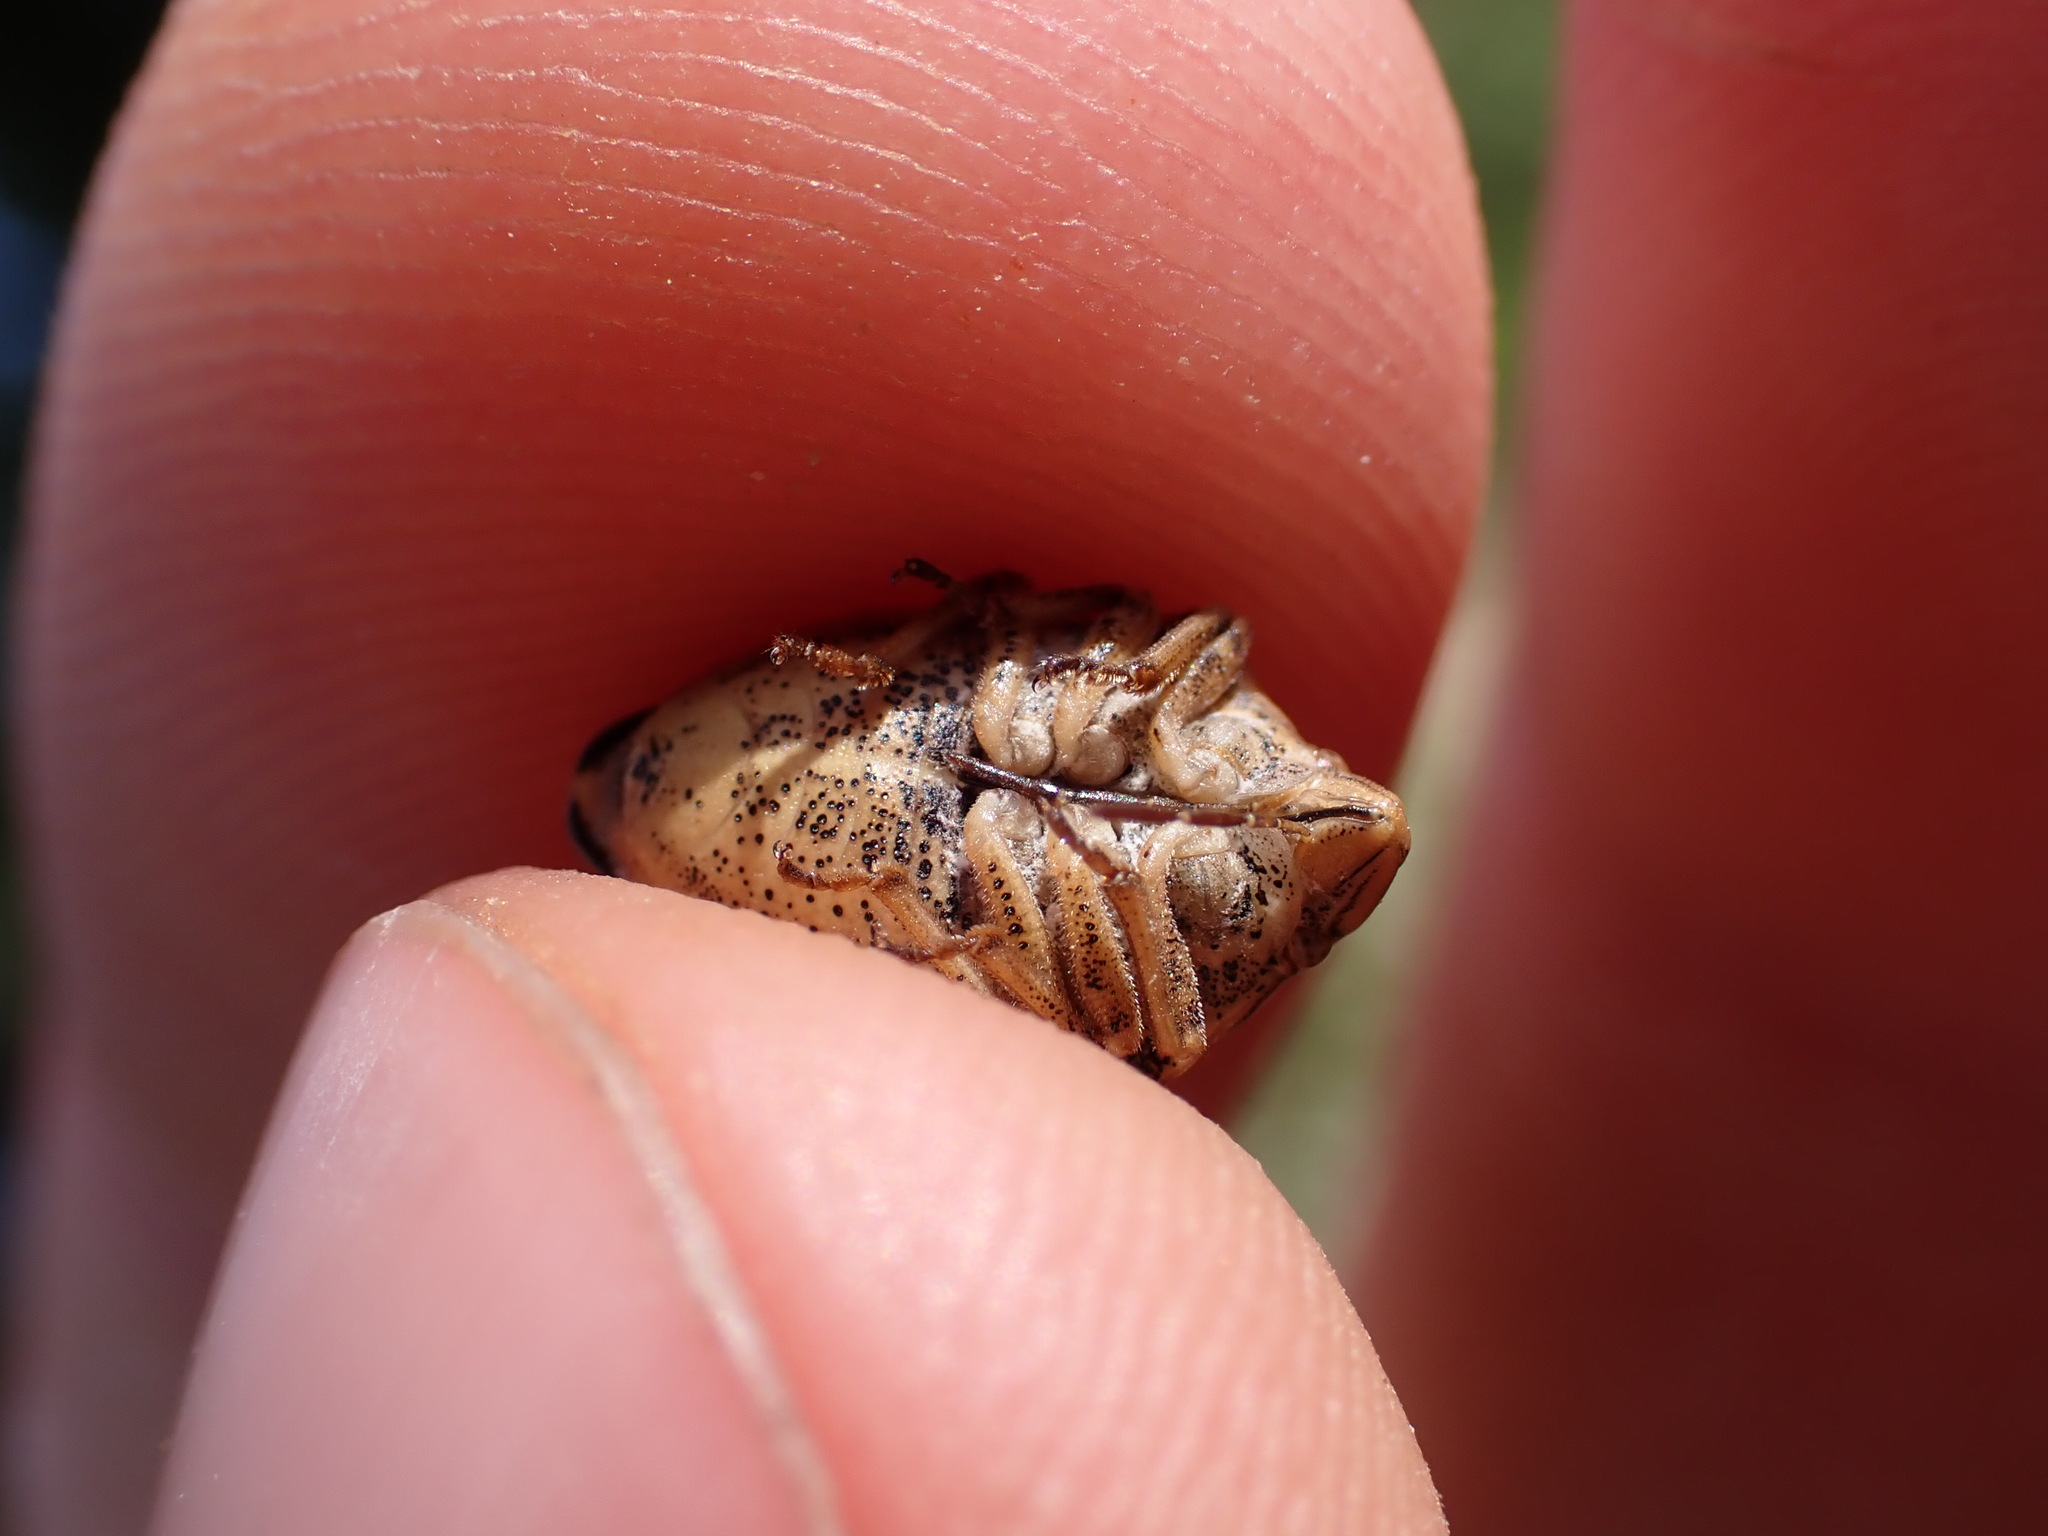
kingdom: Animalia
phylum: Arthropoda
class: Insecta
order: Hemiptera
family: Scutelleridae
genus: Odontotarsus
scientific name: Odontotarsus purpureolineatus
